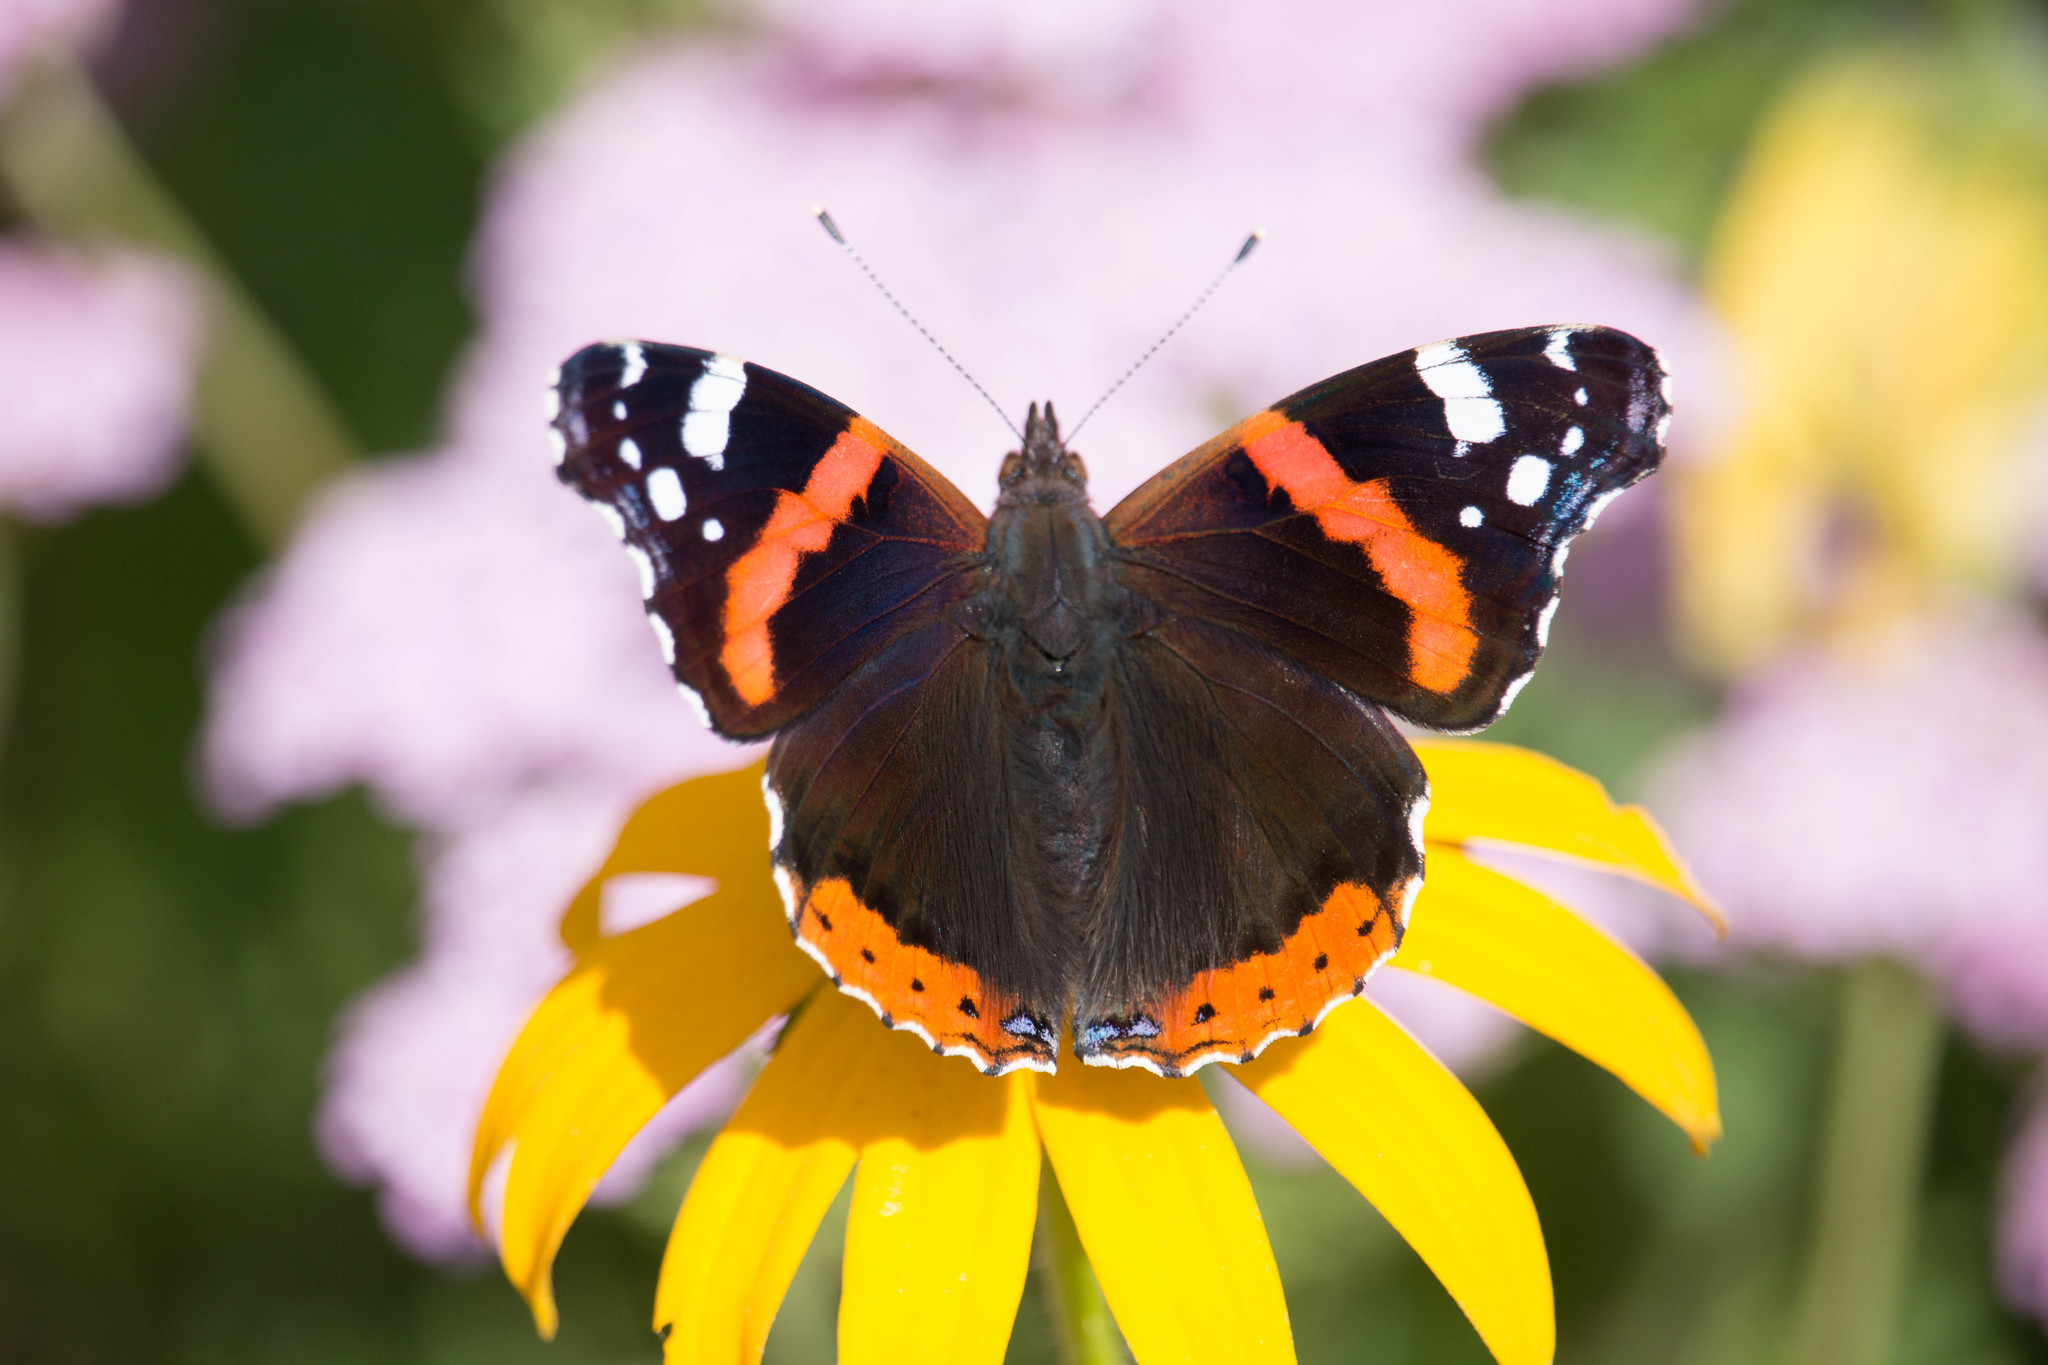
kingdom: Animalia
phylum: Arthropoda
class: Insecta
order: Lepidoptera
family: Nymphalidae
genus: Vanessa
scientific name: Vanessa atalanta
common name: Red admiral
